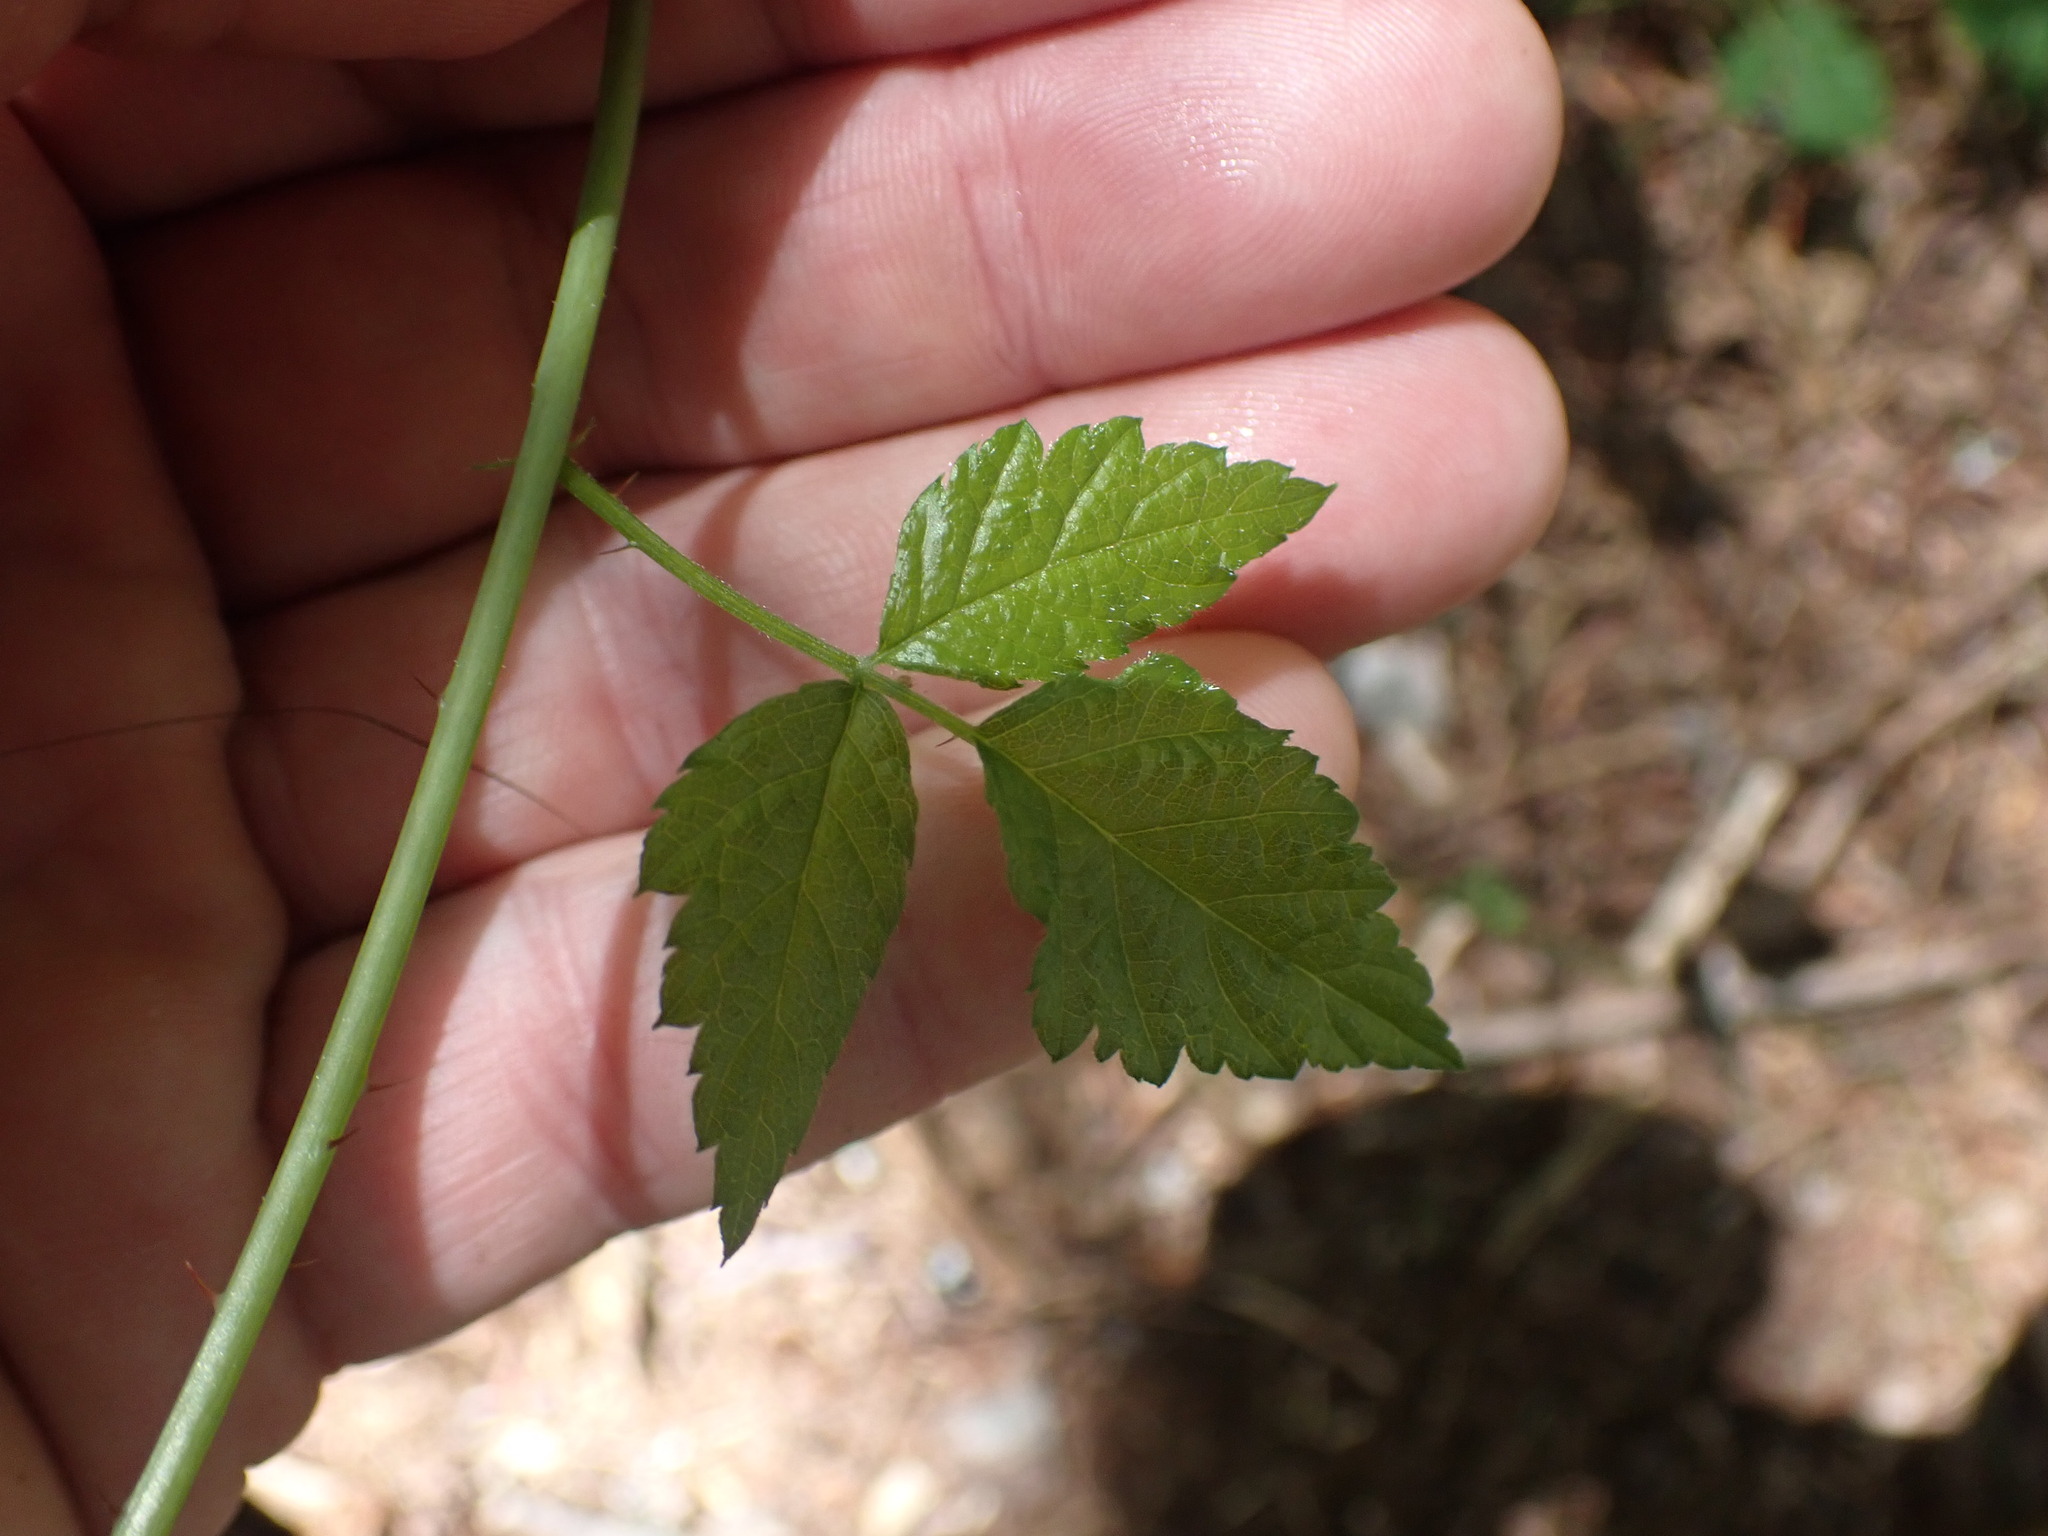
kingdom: Plantae
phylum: Tracheophyta
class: Magnoliopsida
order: Rosales
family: Rosaceae
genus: Rubus
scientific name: Rubus ursinus
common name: Pacific blackberry
